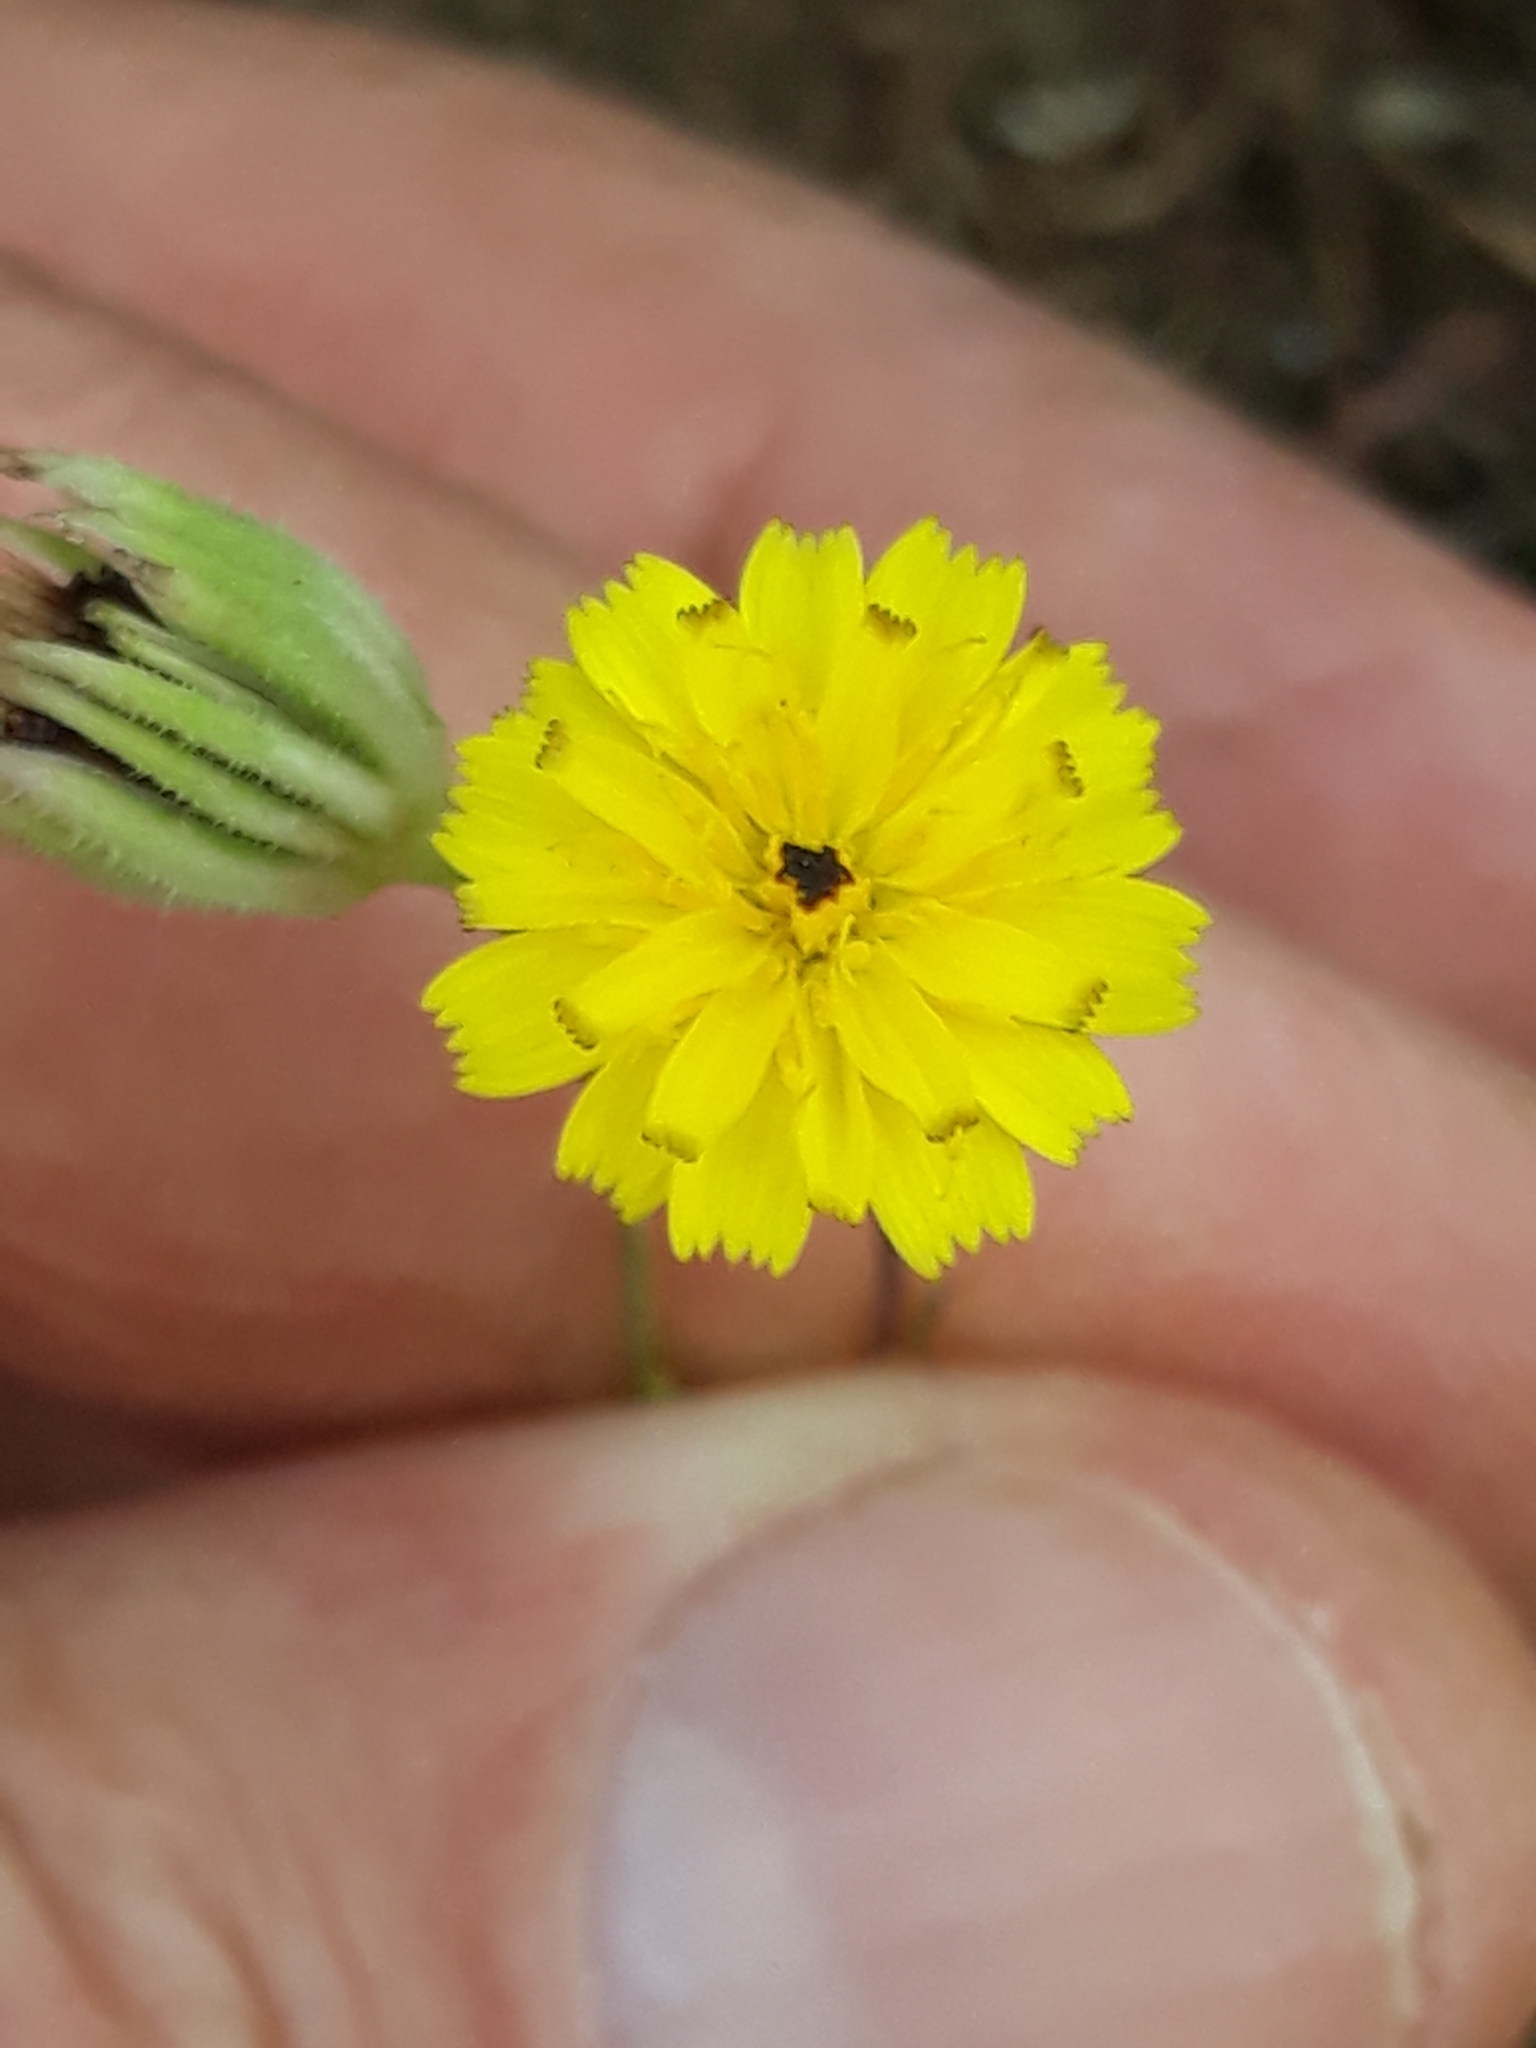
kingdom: Plantae
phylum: Tracheophyta
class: Magnoliopsida
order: Asterales
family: Asteraceae
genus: Hedypnois
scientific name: Hedypnois rhagadioloides
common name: Cretan weed
